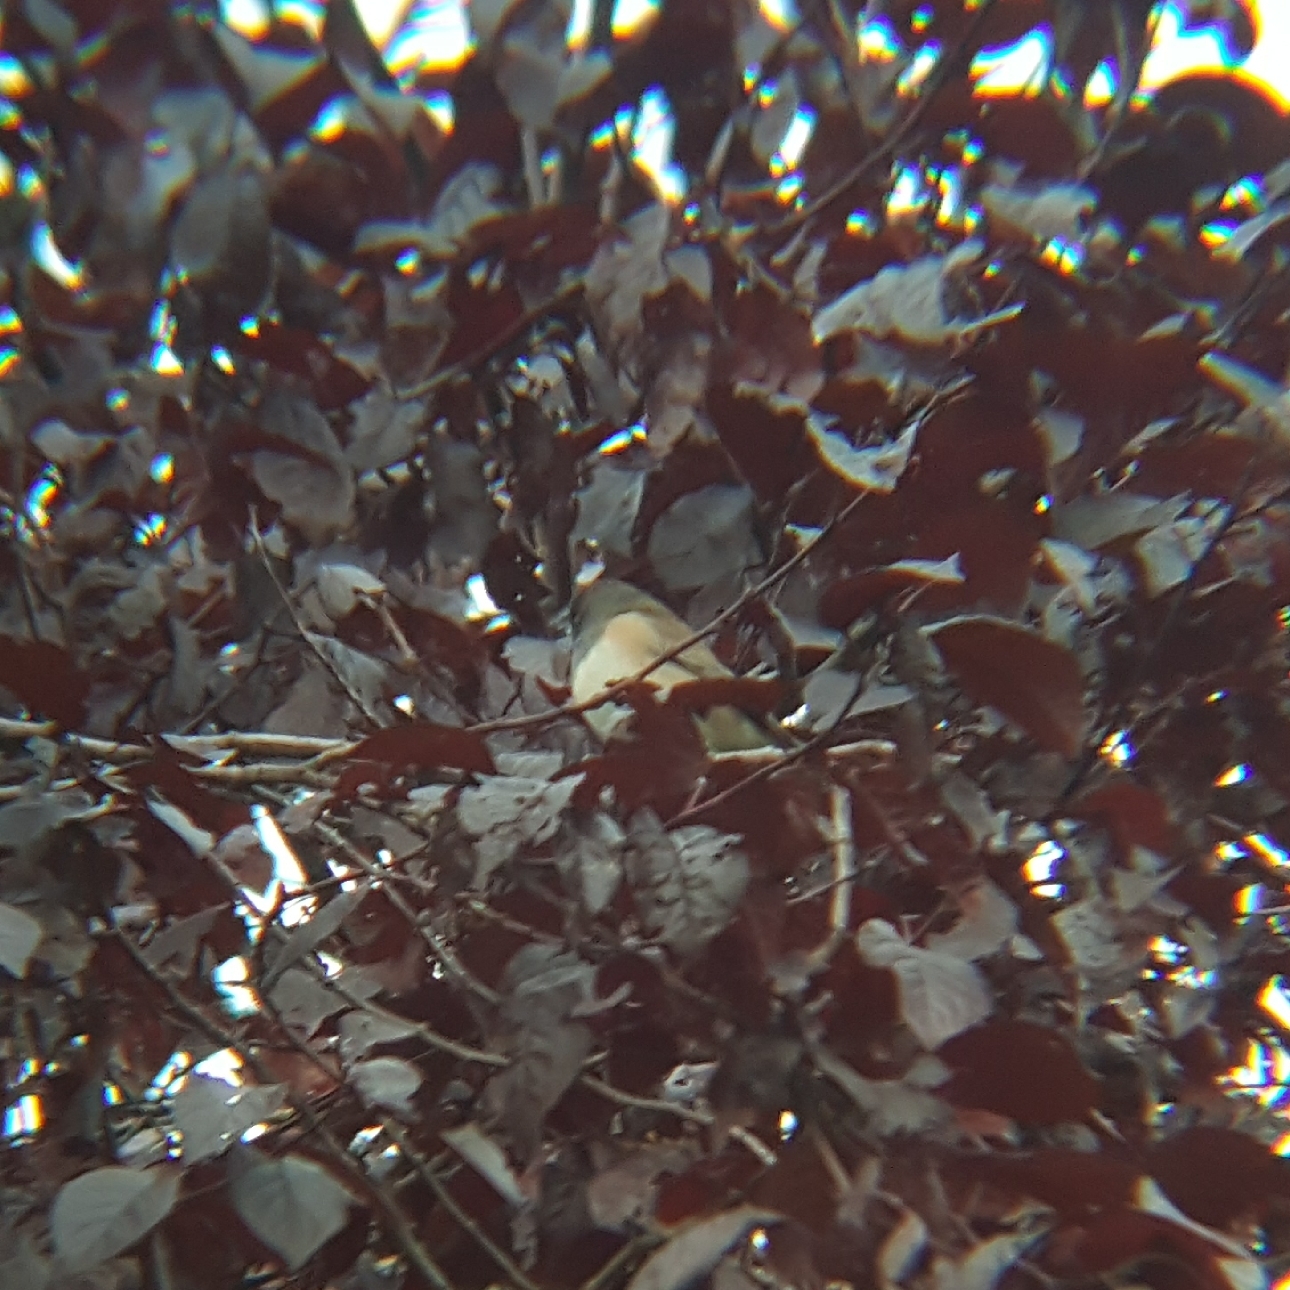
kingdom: Animalia
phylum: Chordata
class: Aves
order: Passeriformes
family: Passerellidae
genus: Junco
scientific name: Junco hyemalis
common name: Dark-eyed junco
